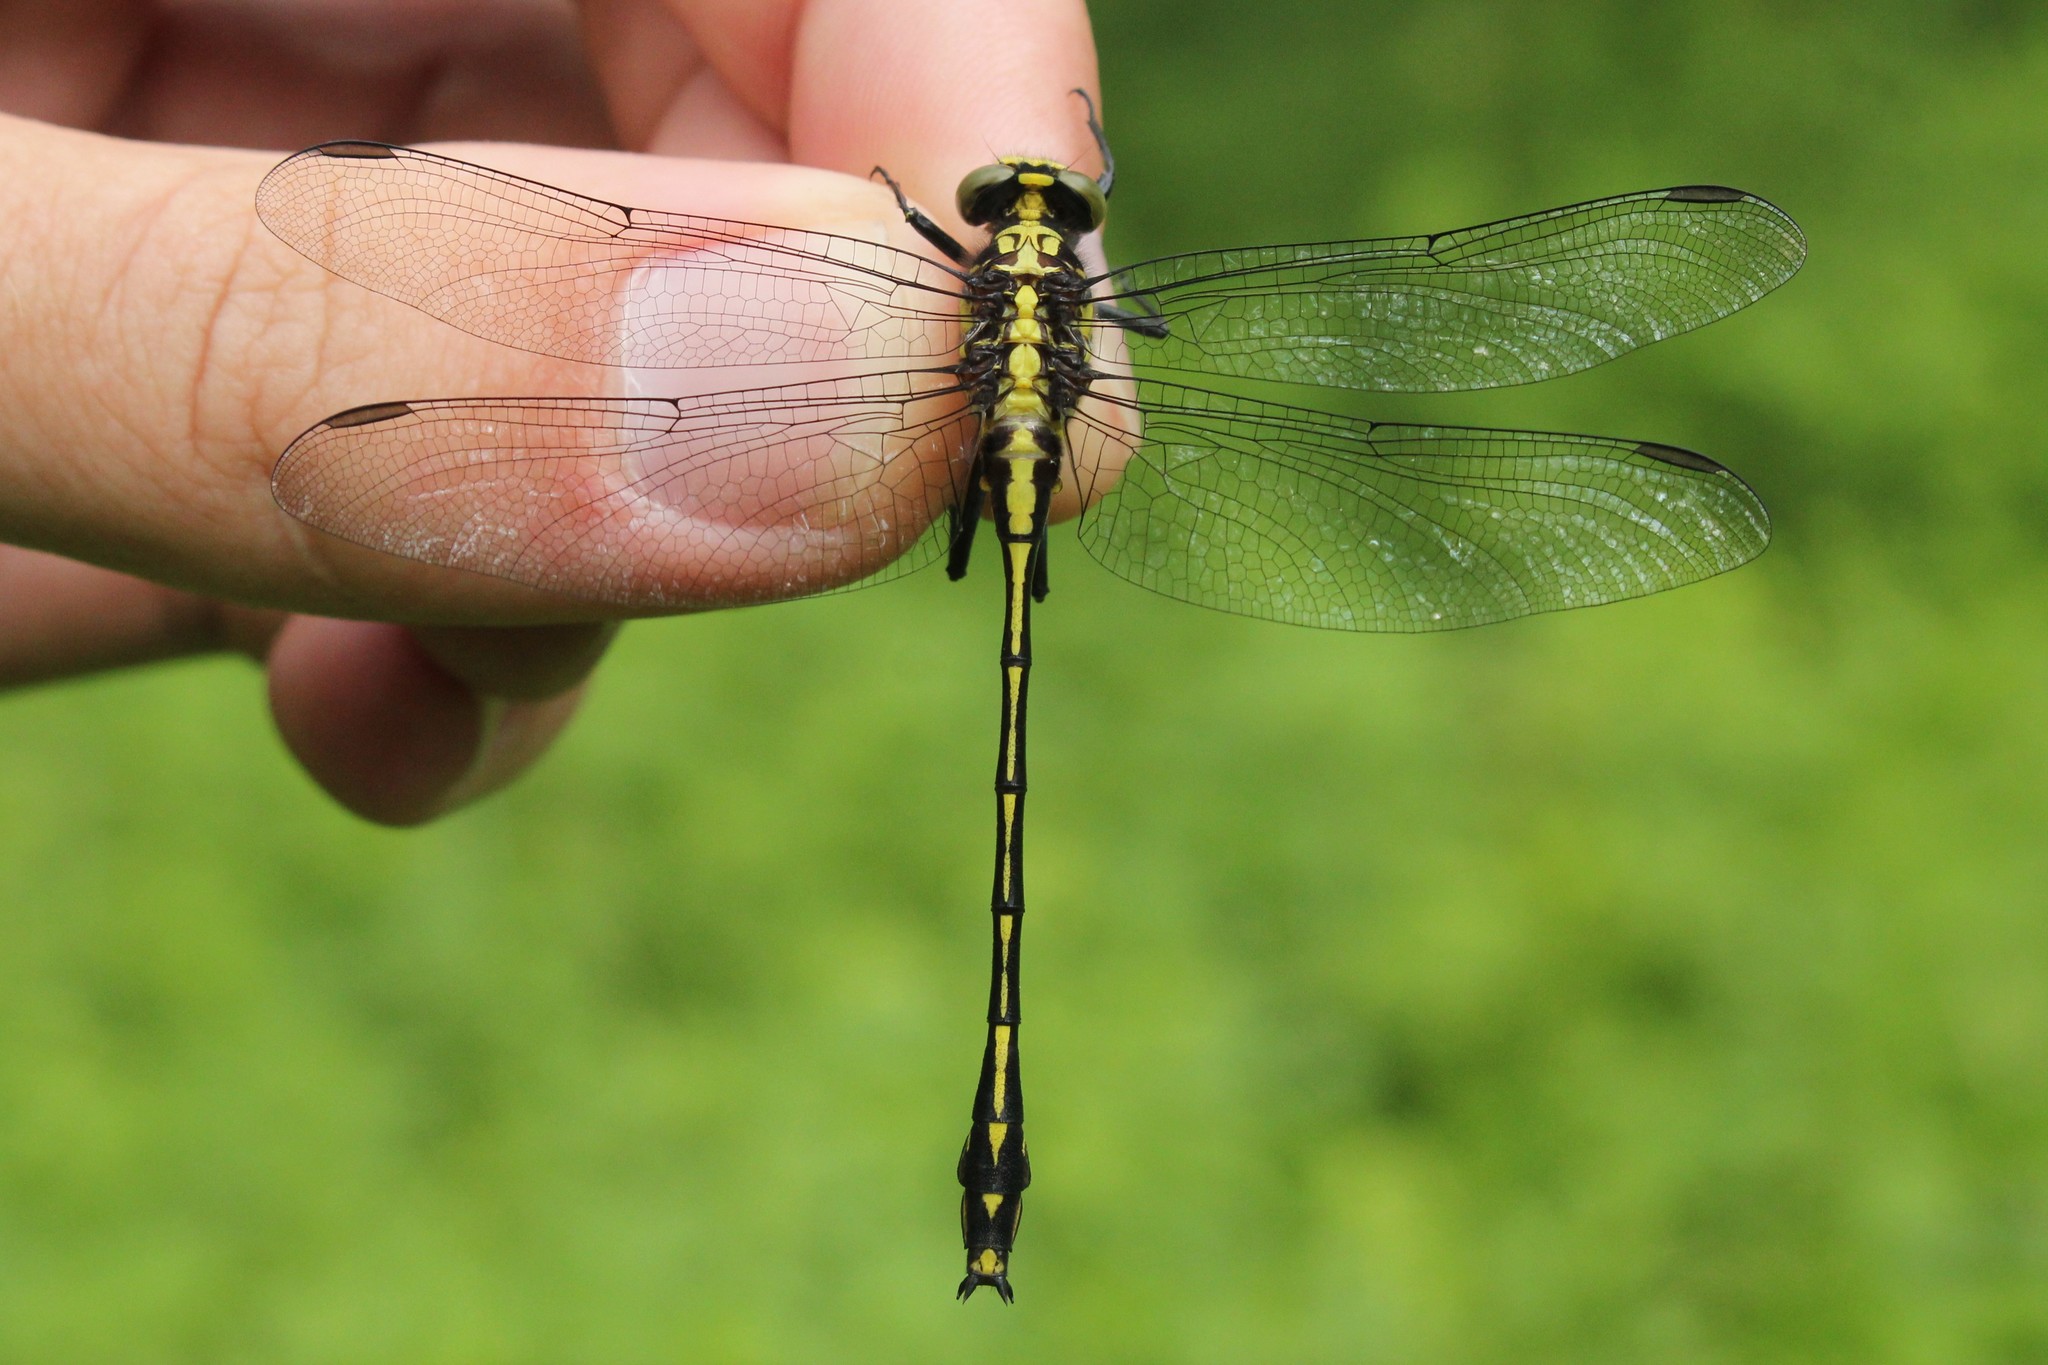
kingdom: Animalia
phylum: Arthropoda
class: Insecta
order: Odonata
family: Gomphidae
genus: Dromogomphus
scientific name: Dromogomphus spinosus
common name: Black-shouldered spinyleg
